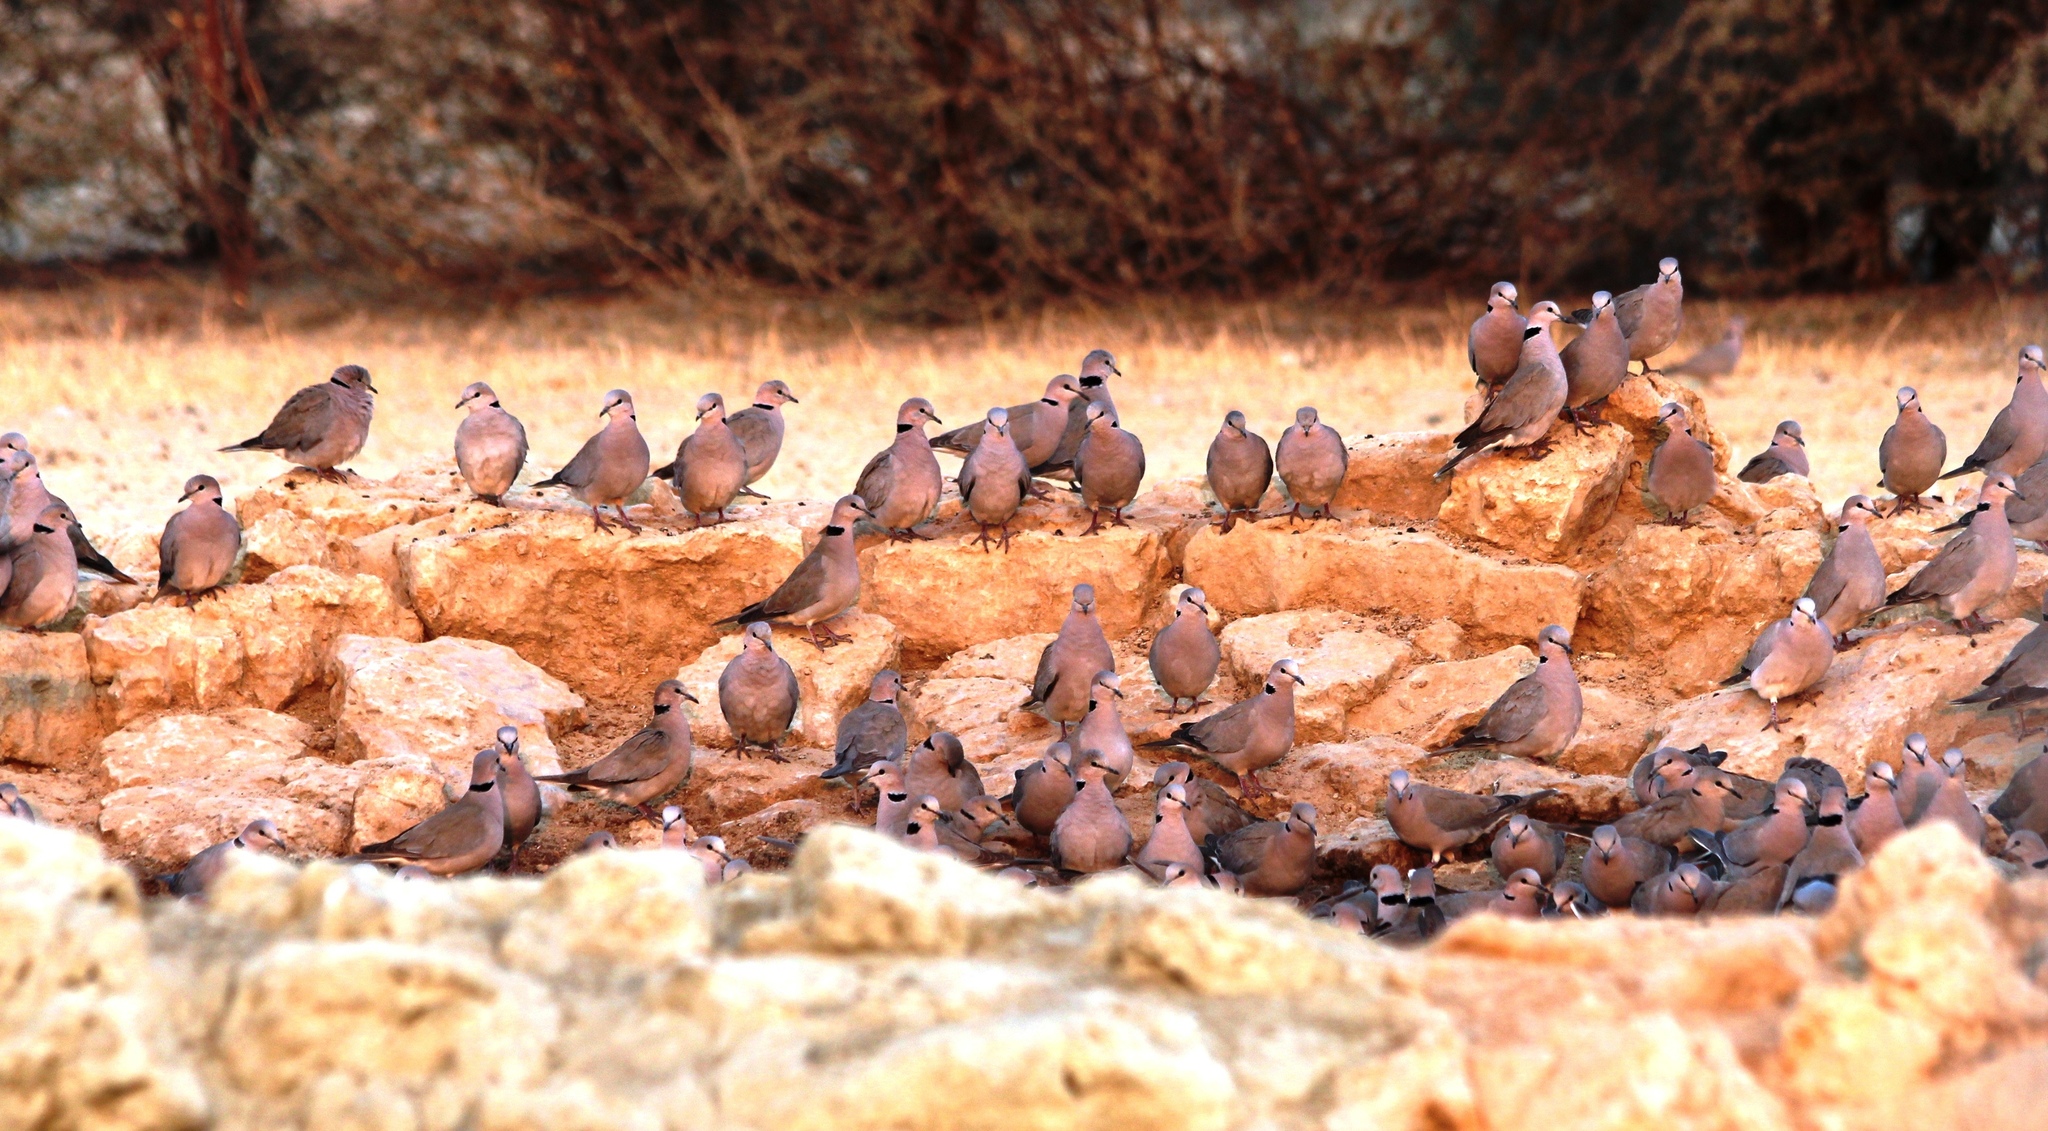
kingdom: Animalia
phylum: Chordata
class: Aves
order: Columbiformes
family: Columbidae
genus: Streptopelia
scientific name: Streptopelia capicola
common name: Ring-necked dove
